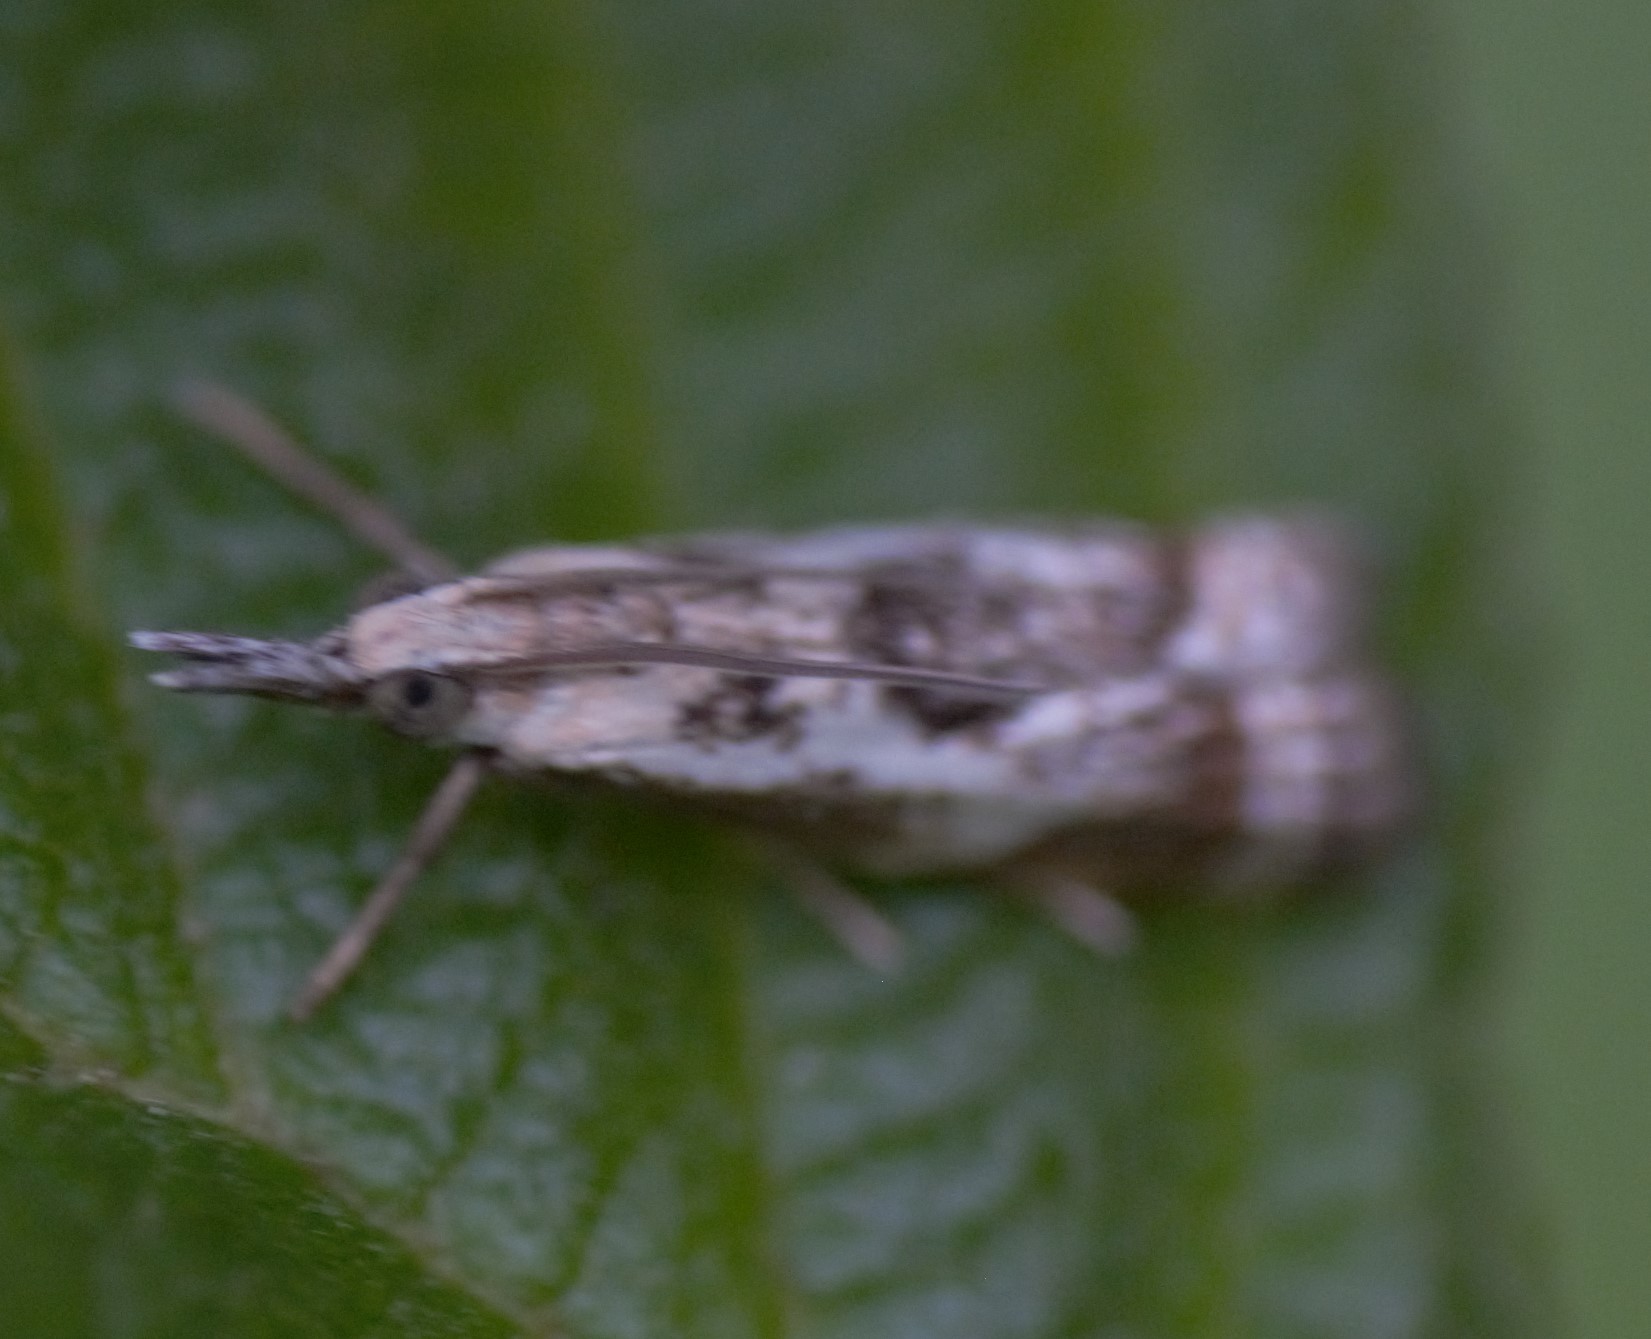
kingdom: Animalia
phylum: Arthropoda
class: Insecta
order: Lepidoptera
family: Crambidae
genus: Microcrambus
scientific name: Microcrambus elegans
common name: Elegant grass-veneer
